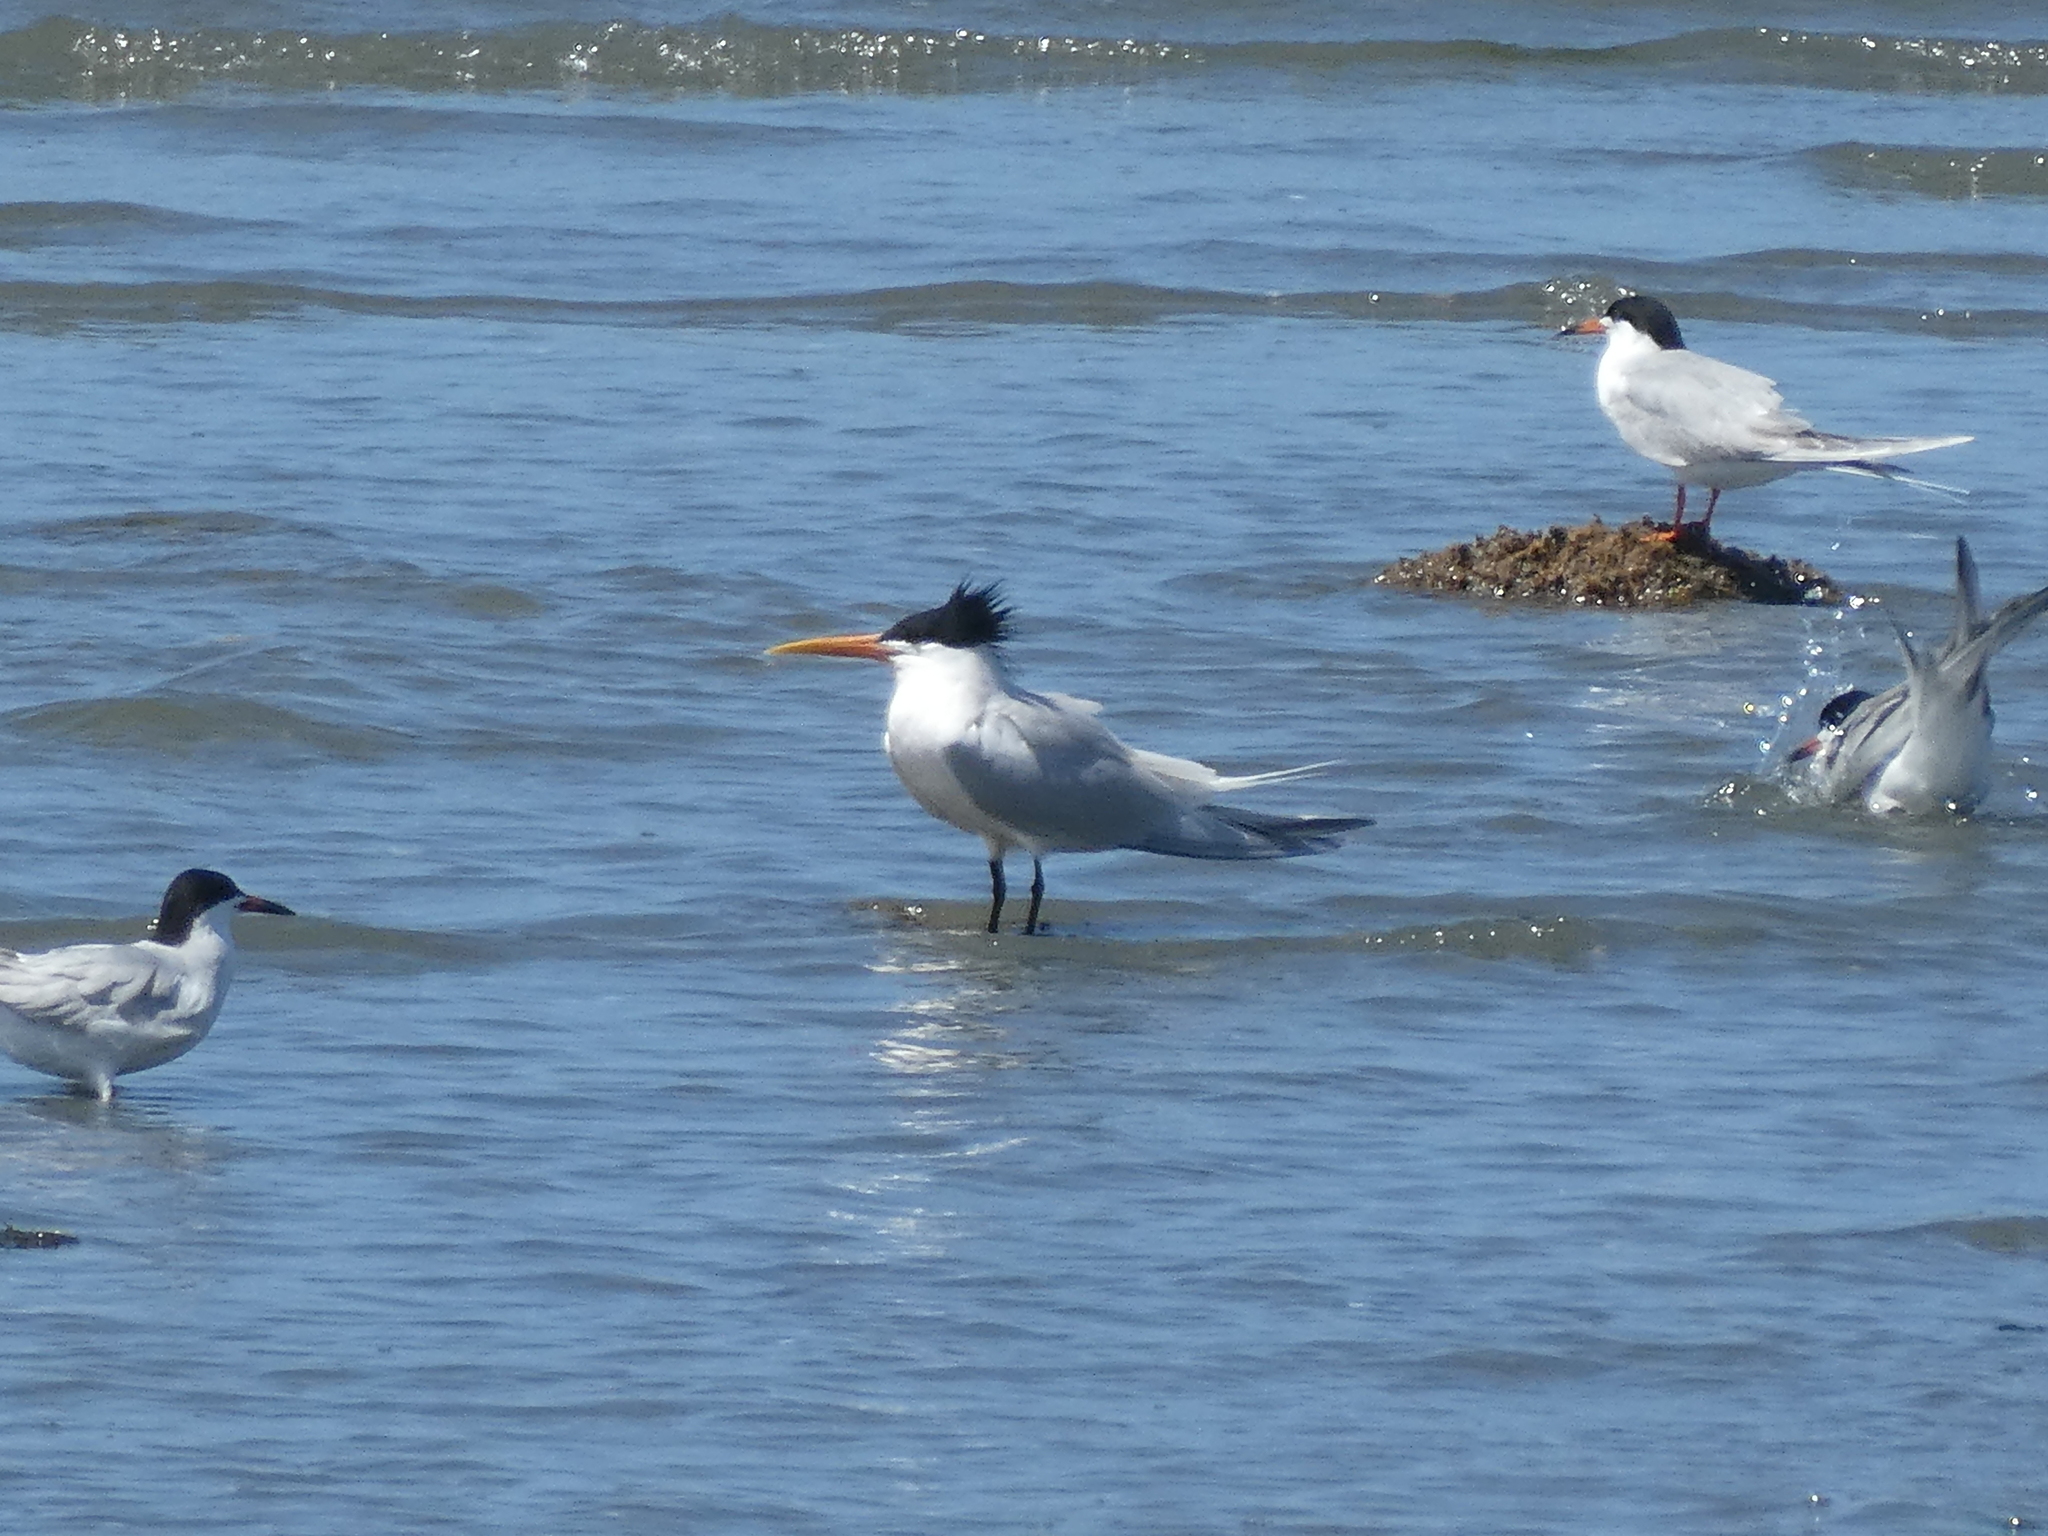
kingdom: Animalia
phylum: Chordata
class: Aves
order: Charadriiformes
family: Laridae
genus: Thalasseus
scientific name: Thalasseus elegans
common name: Elegant tern
